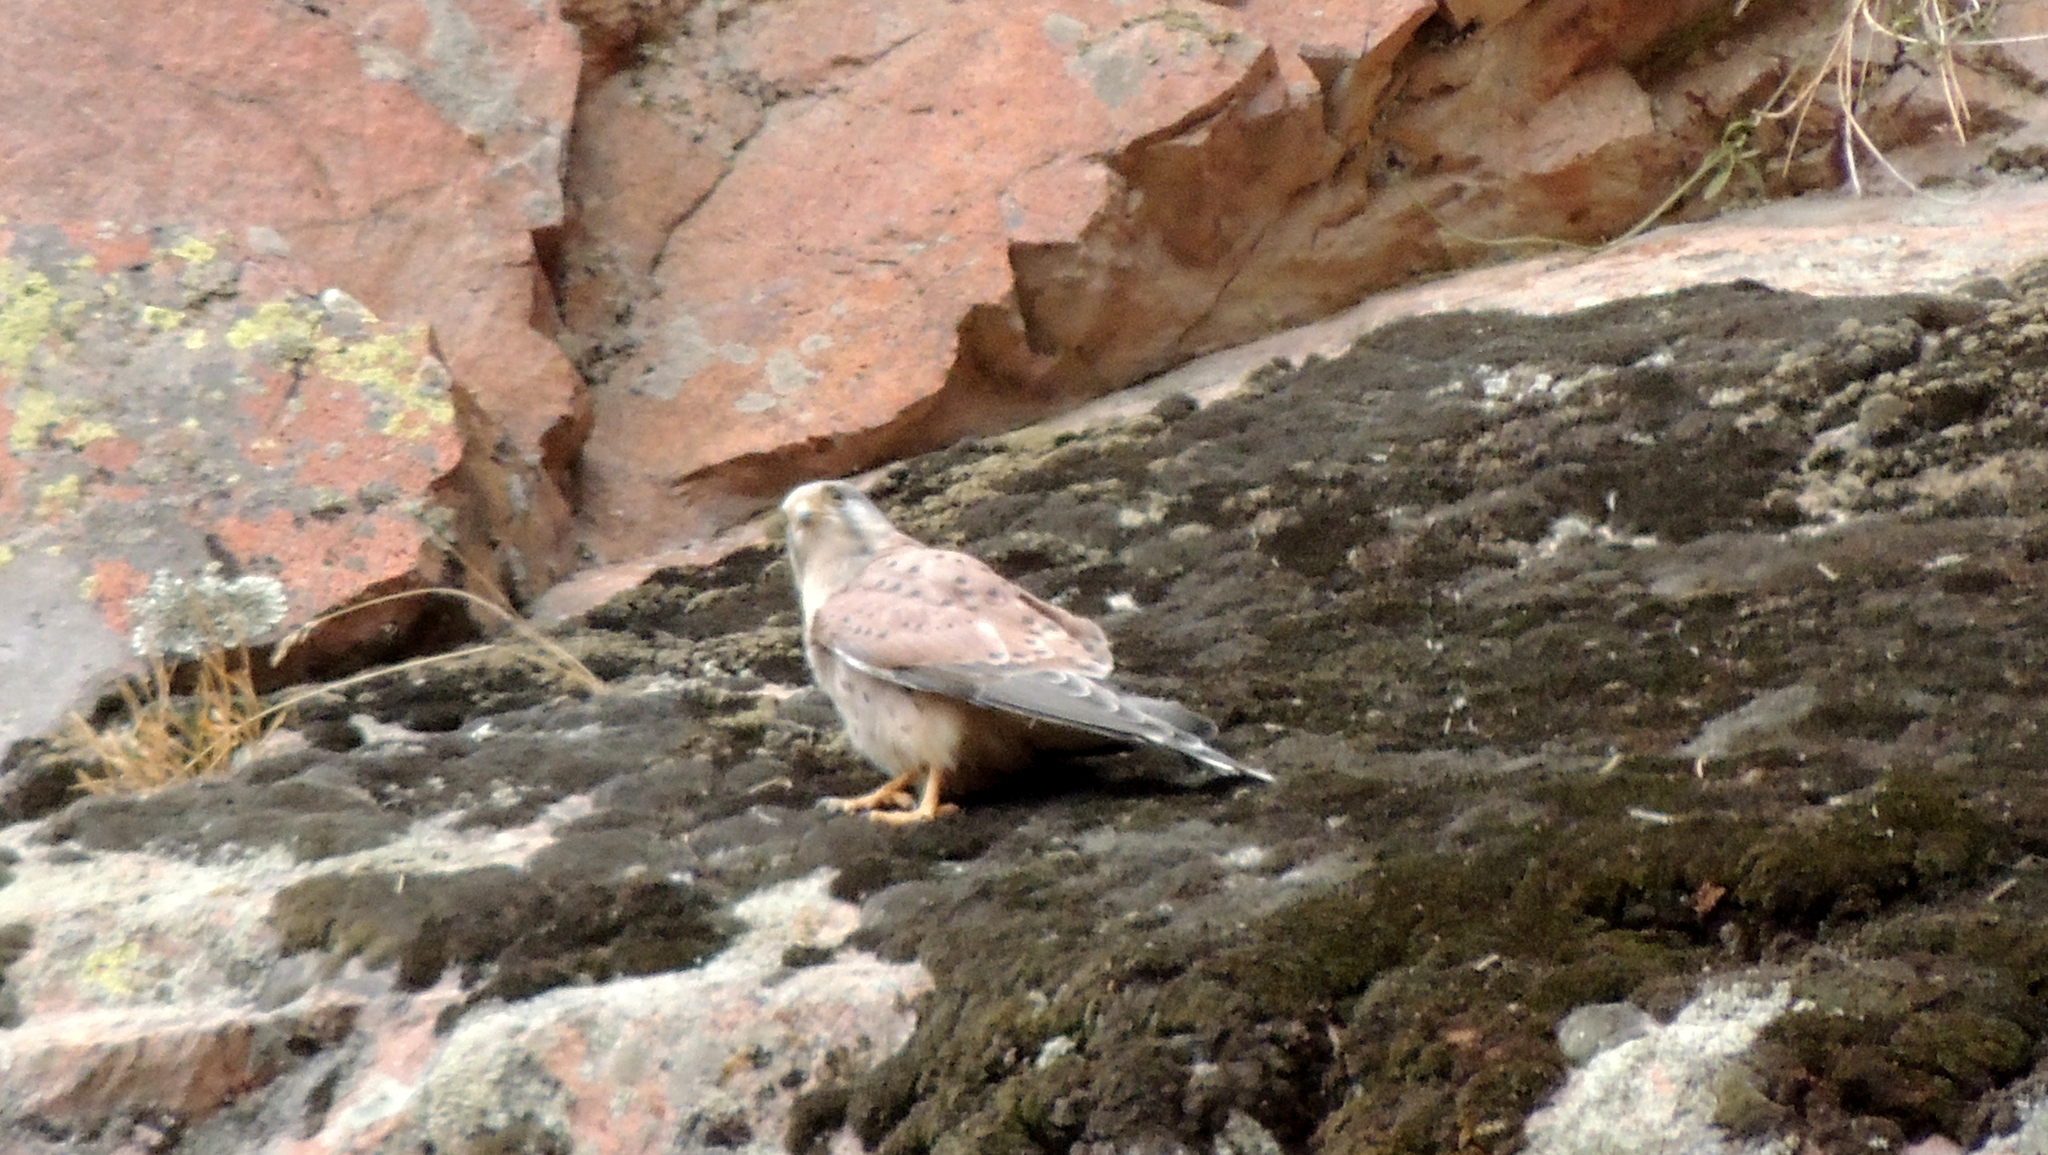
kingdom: Animalia
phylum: Chordata
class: Aves
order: Falconiformes
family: Falconidae
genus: Falco
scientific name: Falco tinnunculus
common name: Common kestrel
